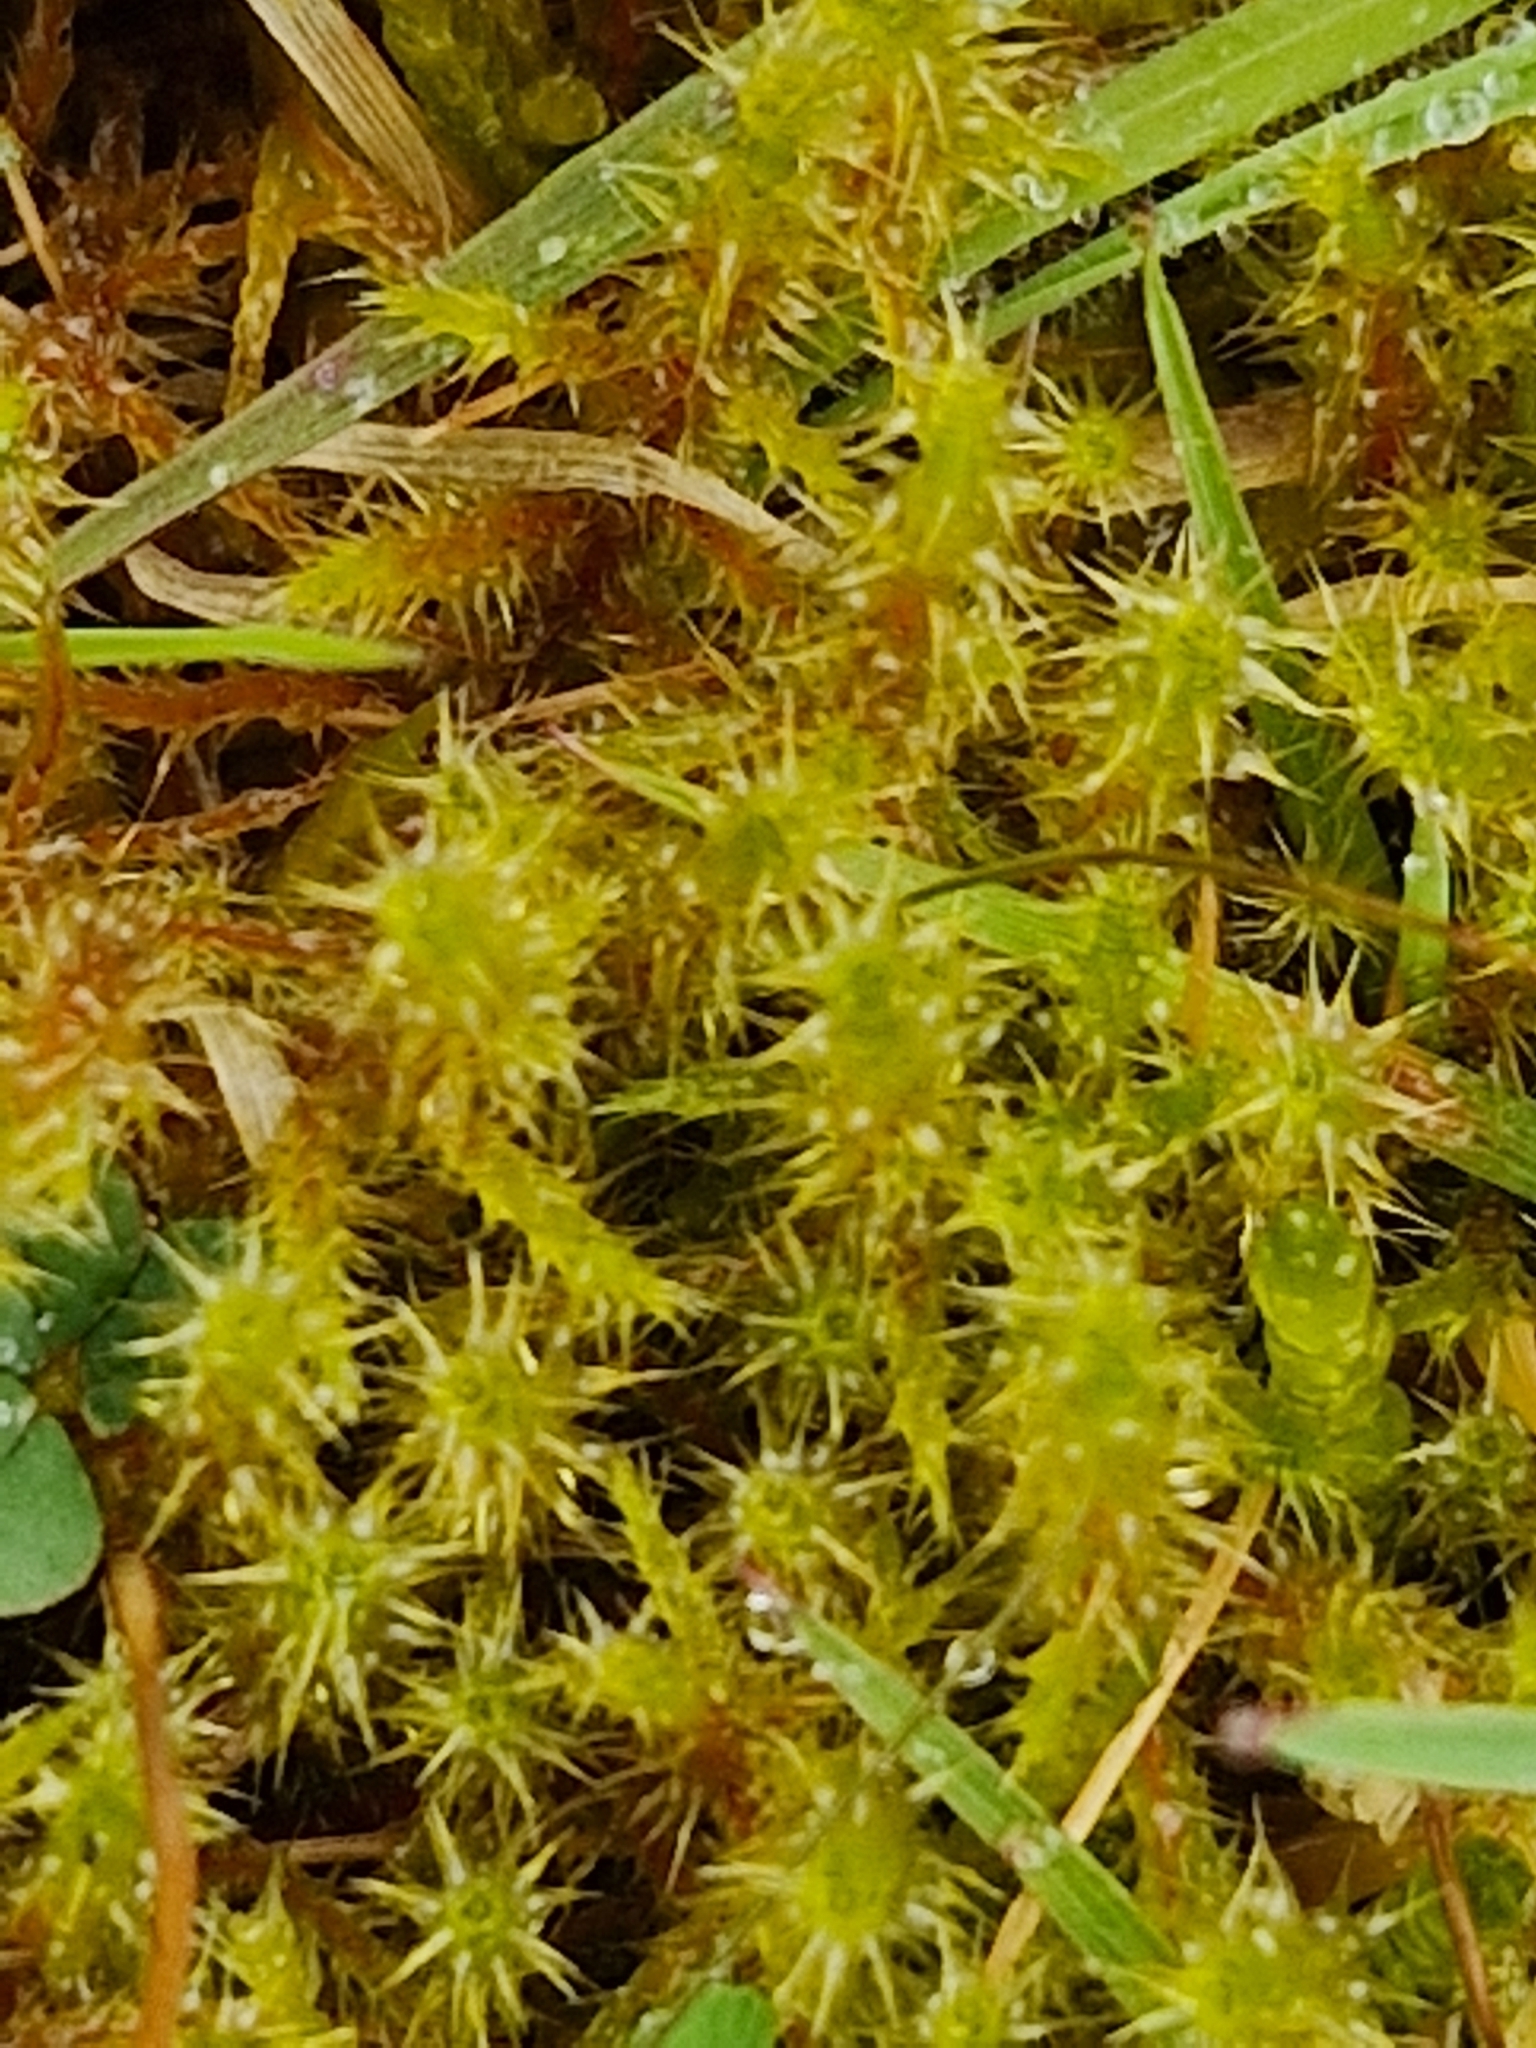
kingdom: Plantae
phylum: Bryophyta
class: Bryopsida
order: Hypnales
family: Hylocomiaceae
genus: Rhytidiadelphus
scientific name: Rhytidiadelphus squarrosus
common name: Springy turf-moss
